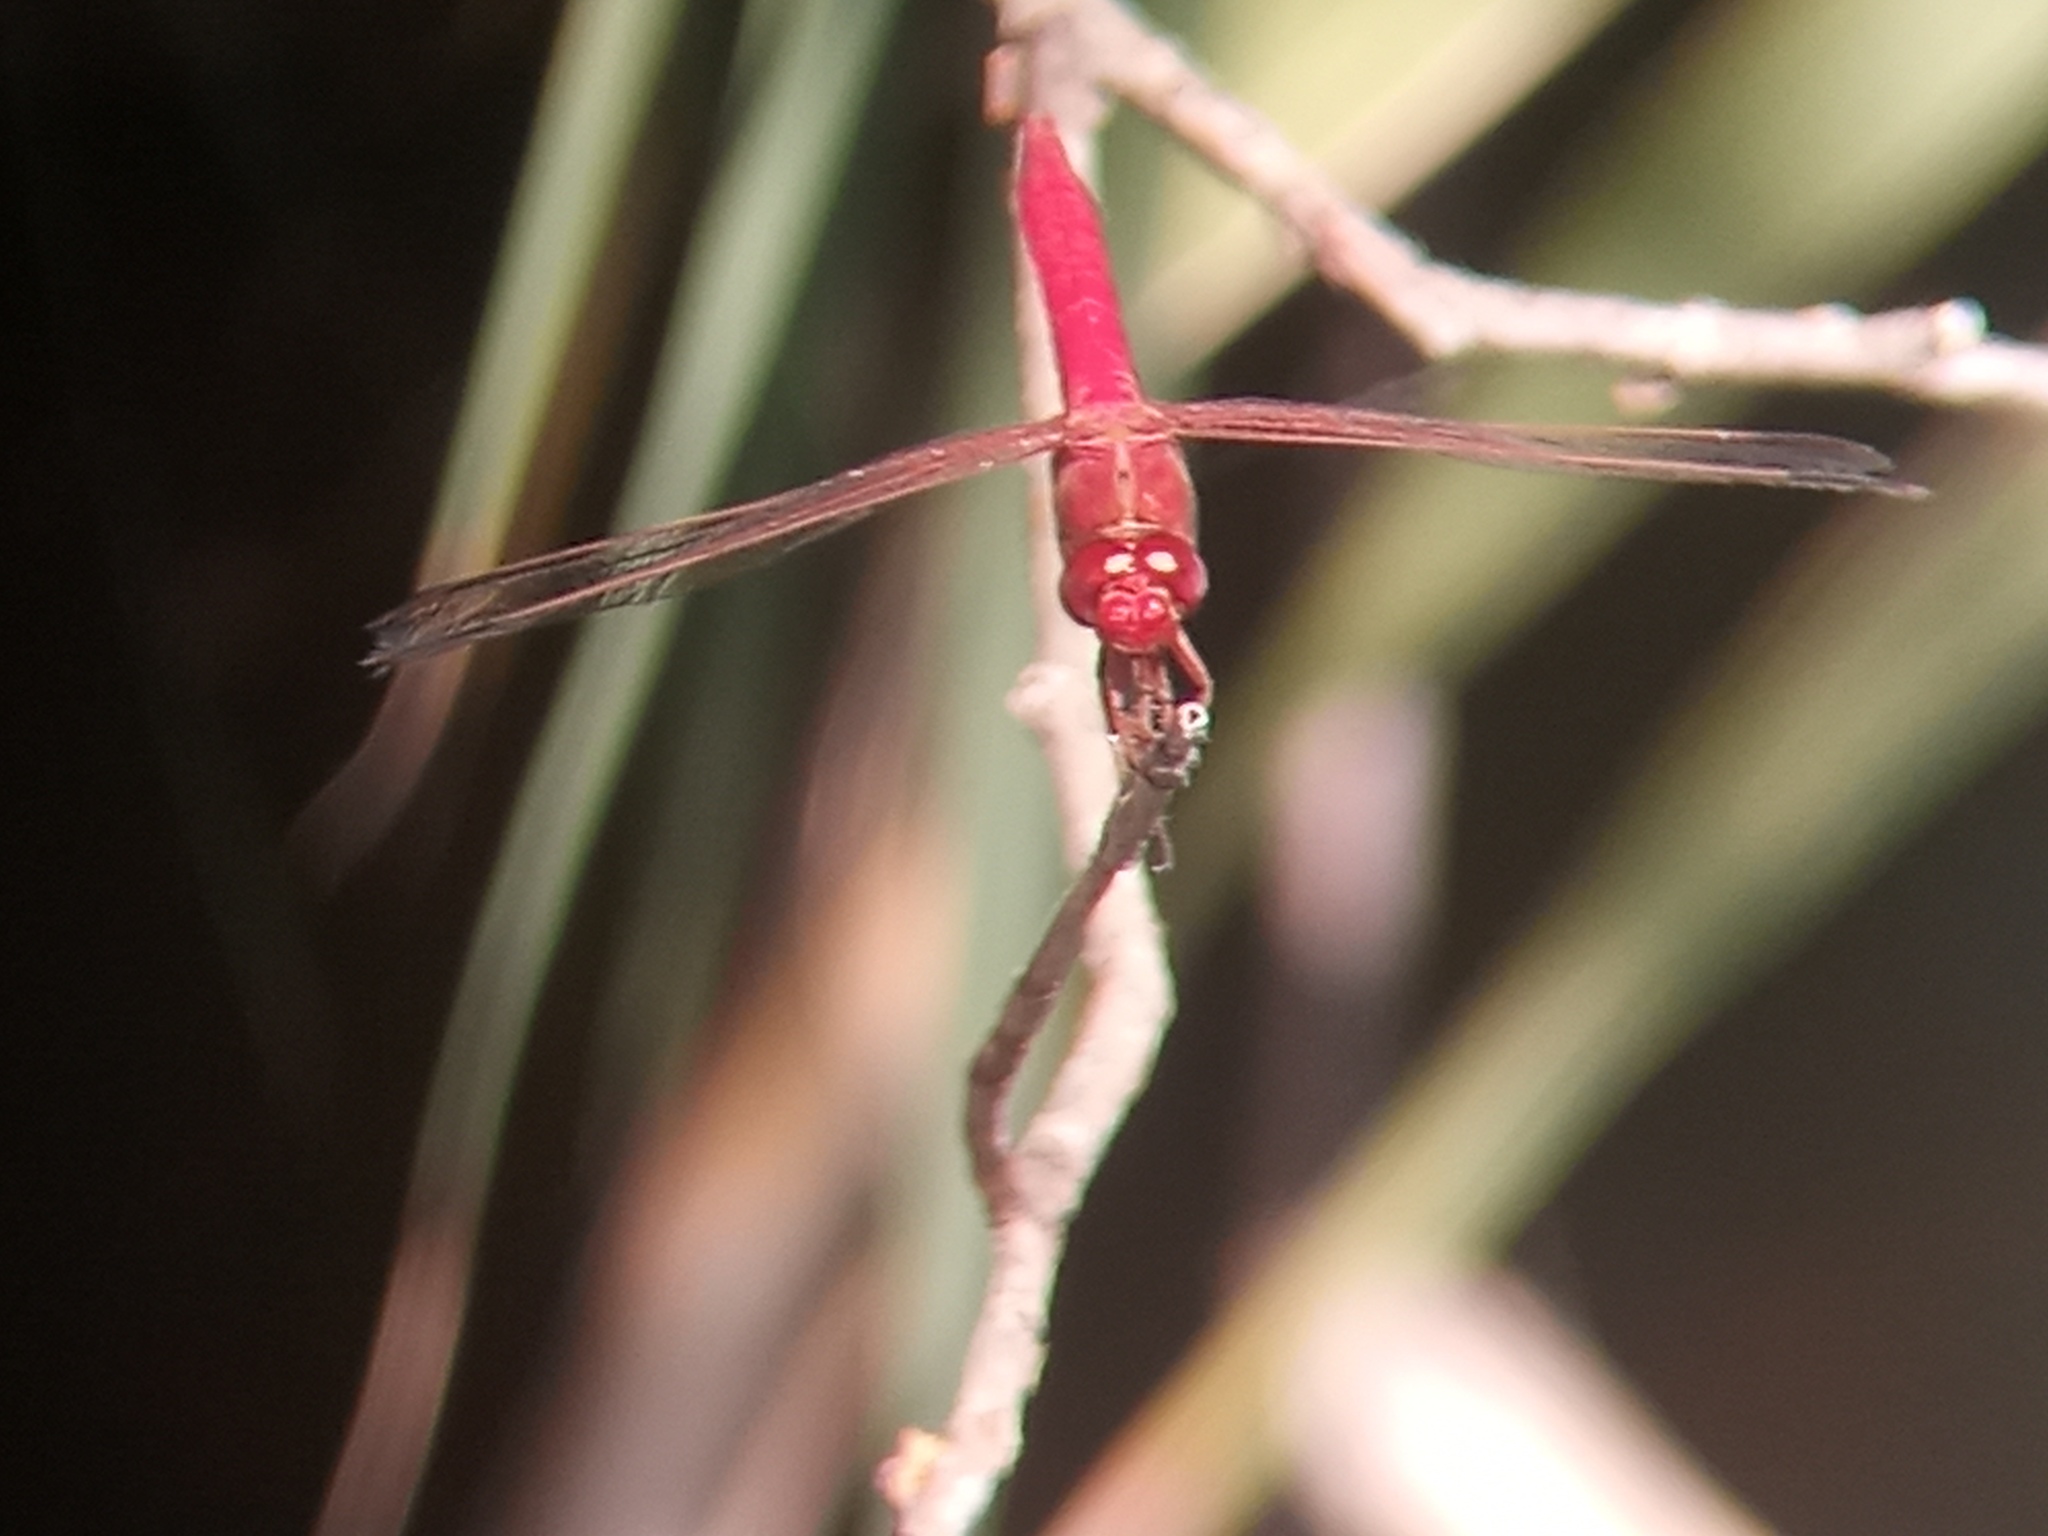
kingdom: Animalia
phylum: Arthropoda
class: Insecta
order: Odonata
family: Libellulidae
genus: Orthemis
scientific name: Orthemis nodiplaga
